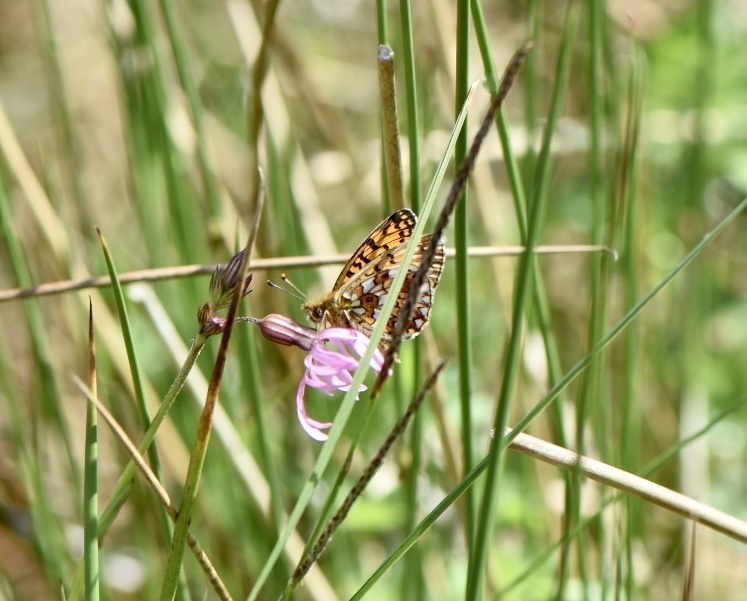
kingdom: Animalia
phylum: Arthropoda
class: Insecta
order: Lepidoptera
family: Nymphalidae
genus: Boloria
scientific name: Boloria selene
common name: Small pearl-bordered fritillary
